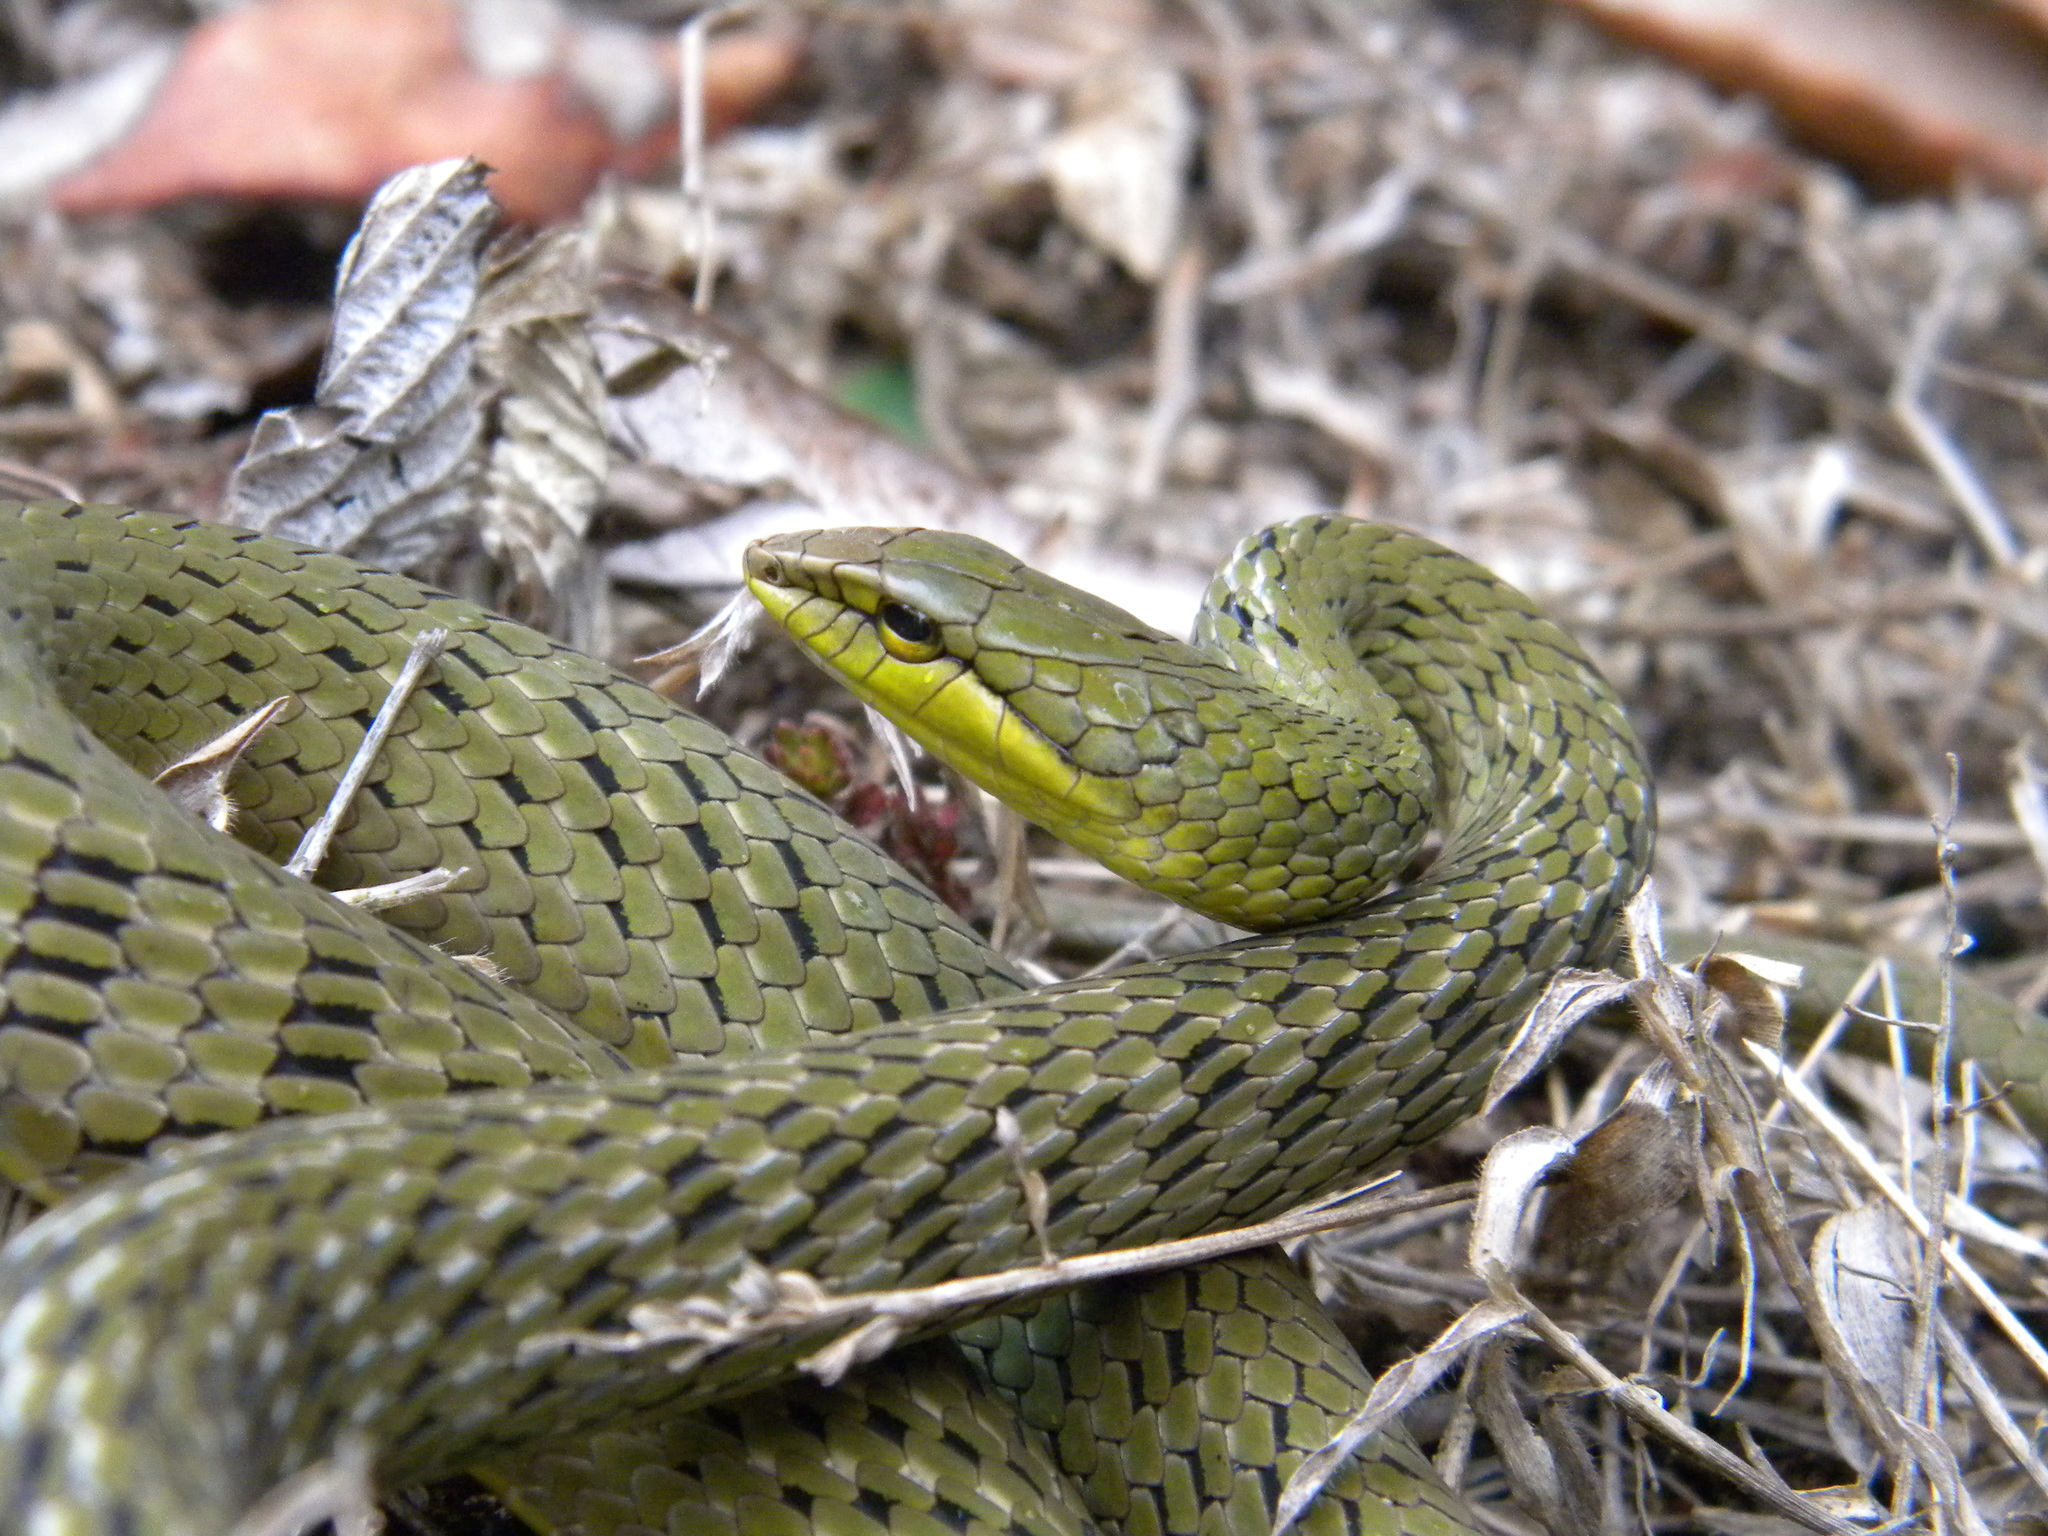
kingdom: Animalia
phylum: Chordata
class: Squamata
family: Colubridae
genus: Ahaetulla
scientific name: Ahaetulla perroteti
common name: Western ghats bronzeback
